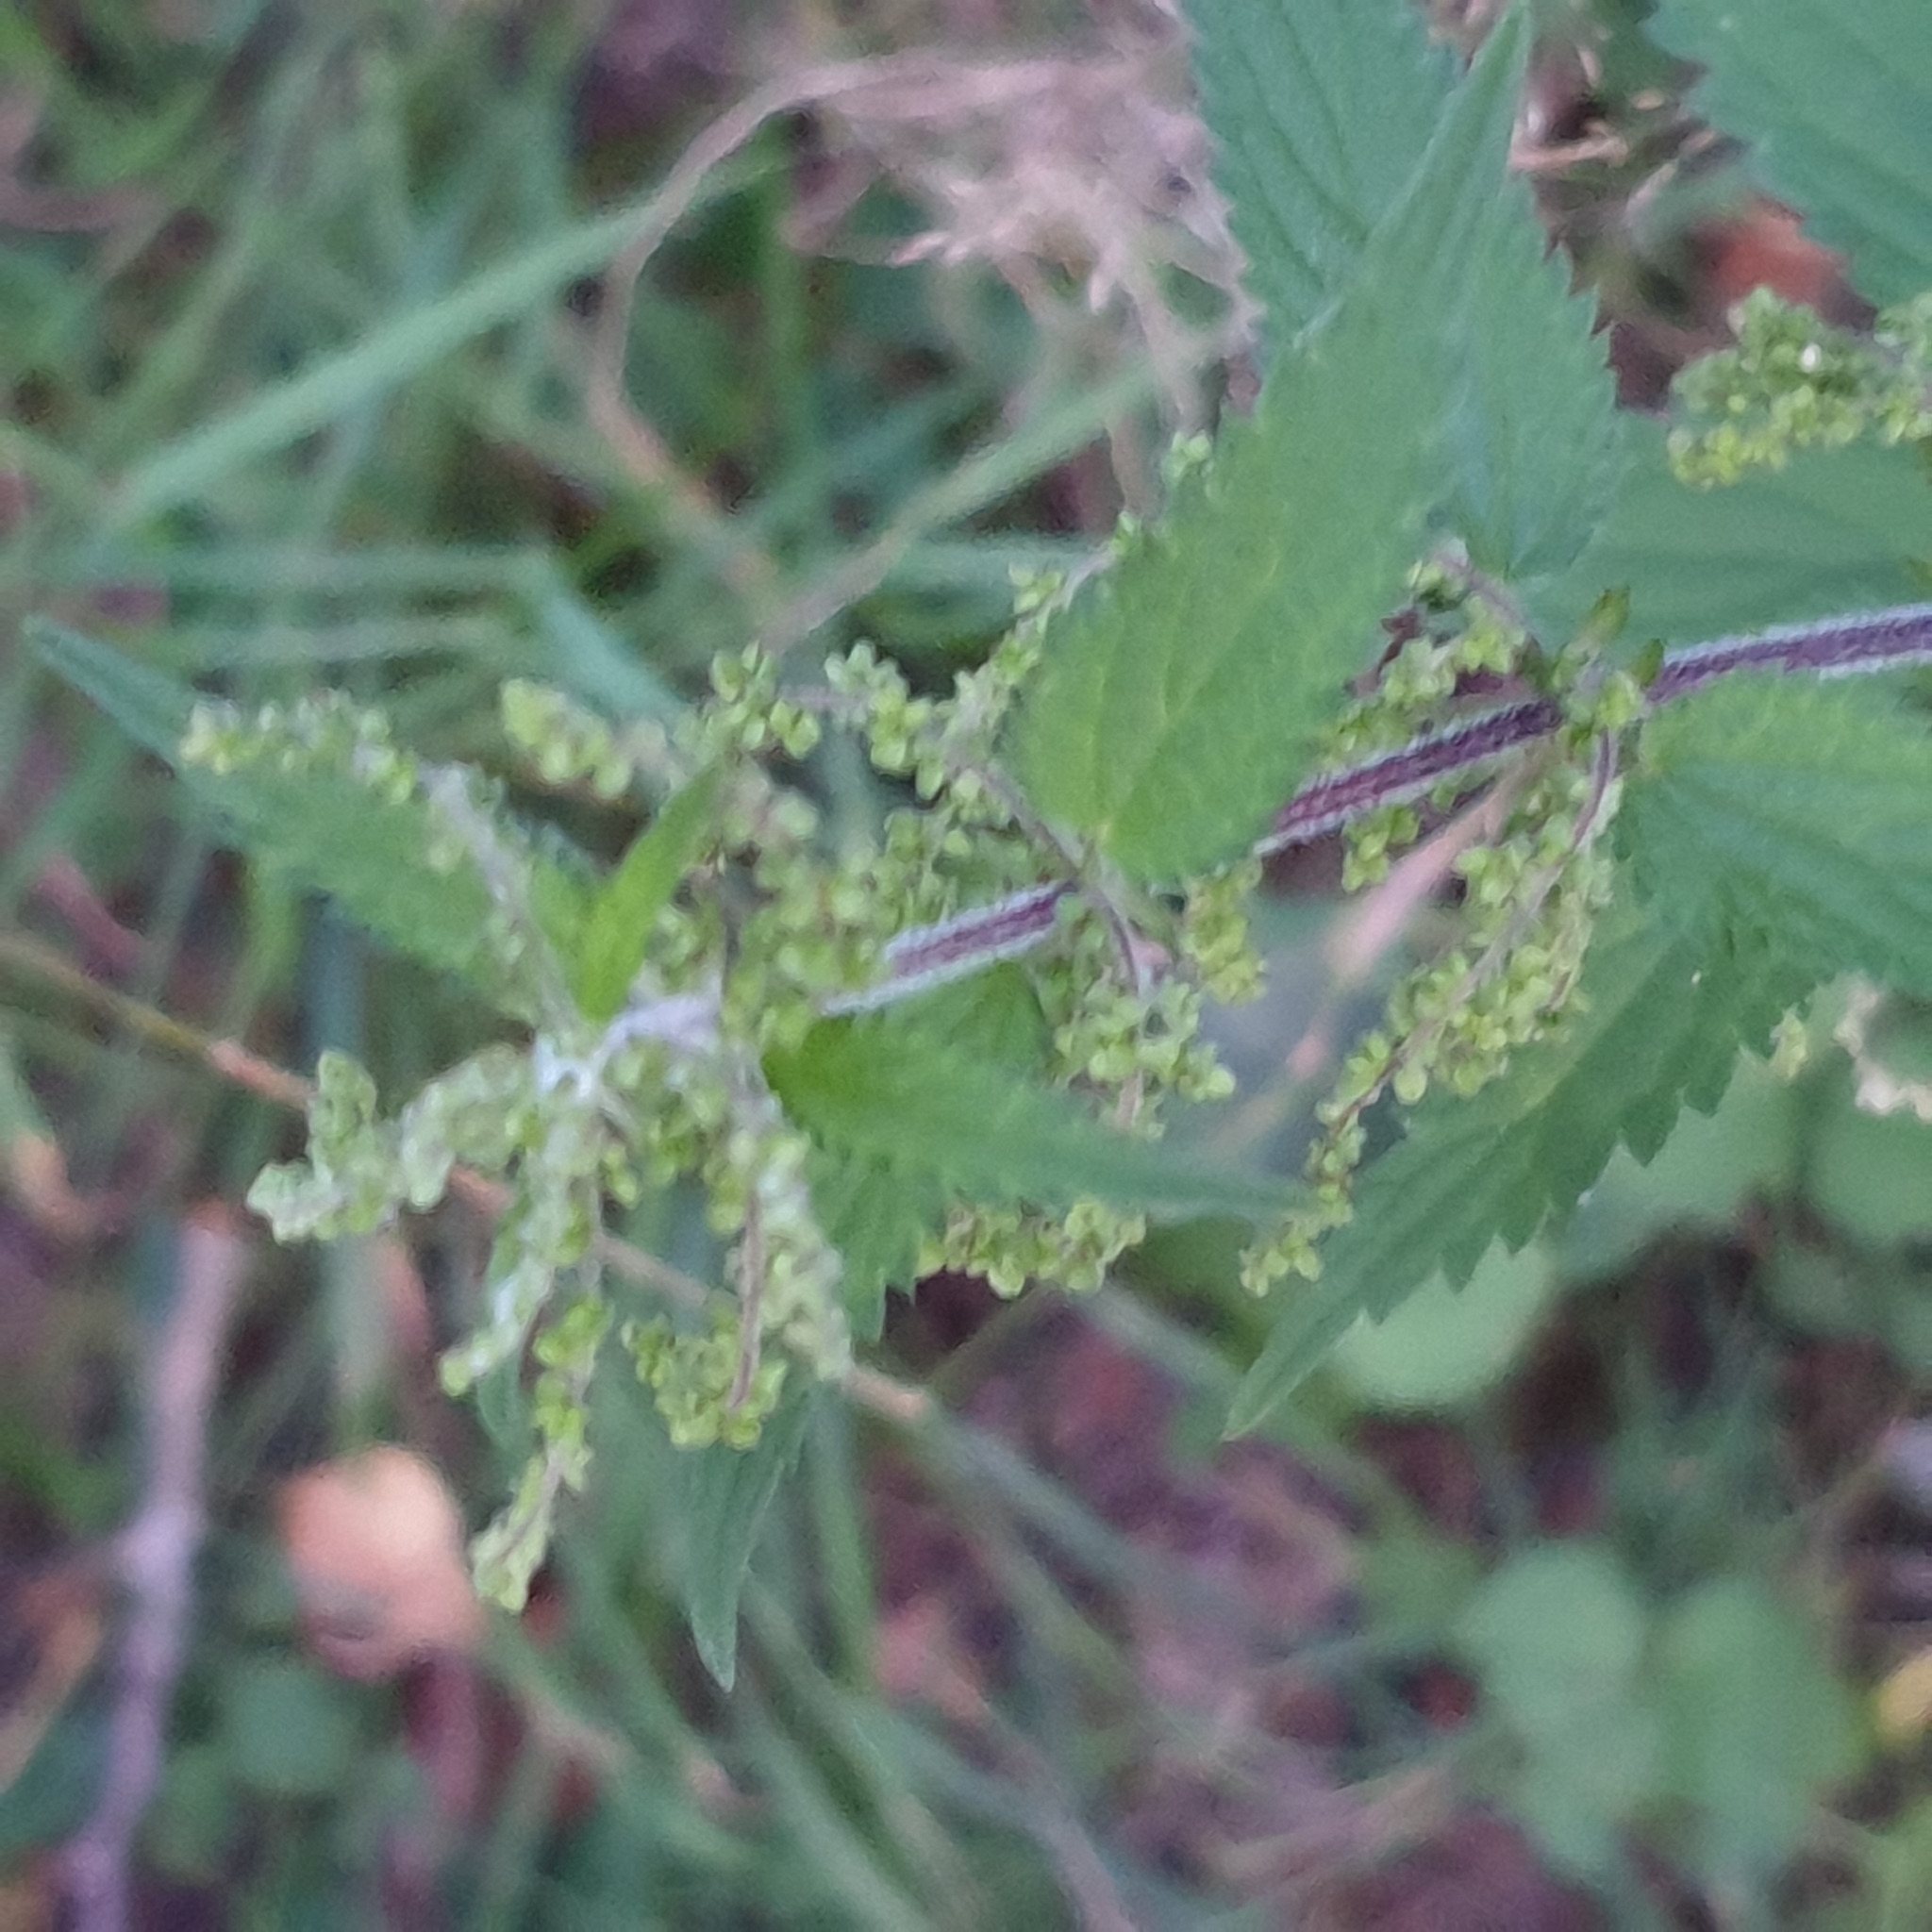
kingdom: Plantae
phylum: Tracheophyta
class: Magnoliopsida
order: Rosales
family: Urticaceae
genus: Urtica
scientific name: Urtica dioica
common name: Common nettle
